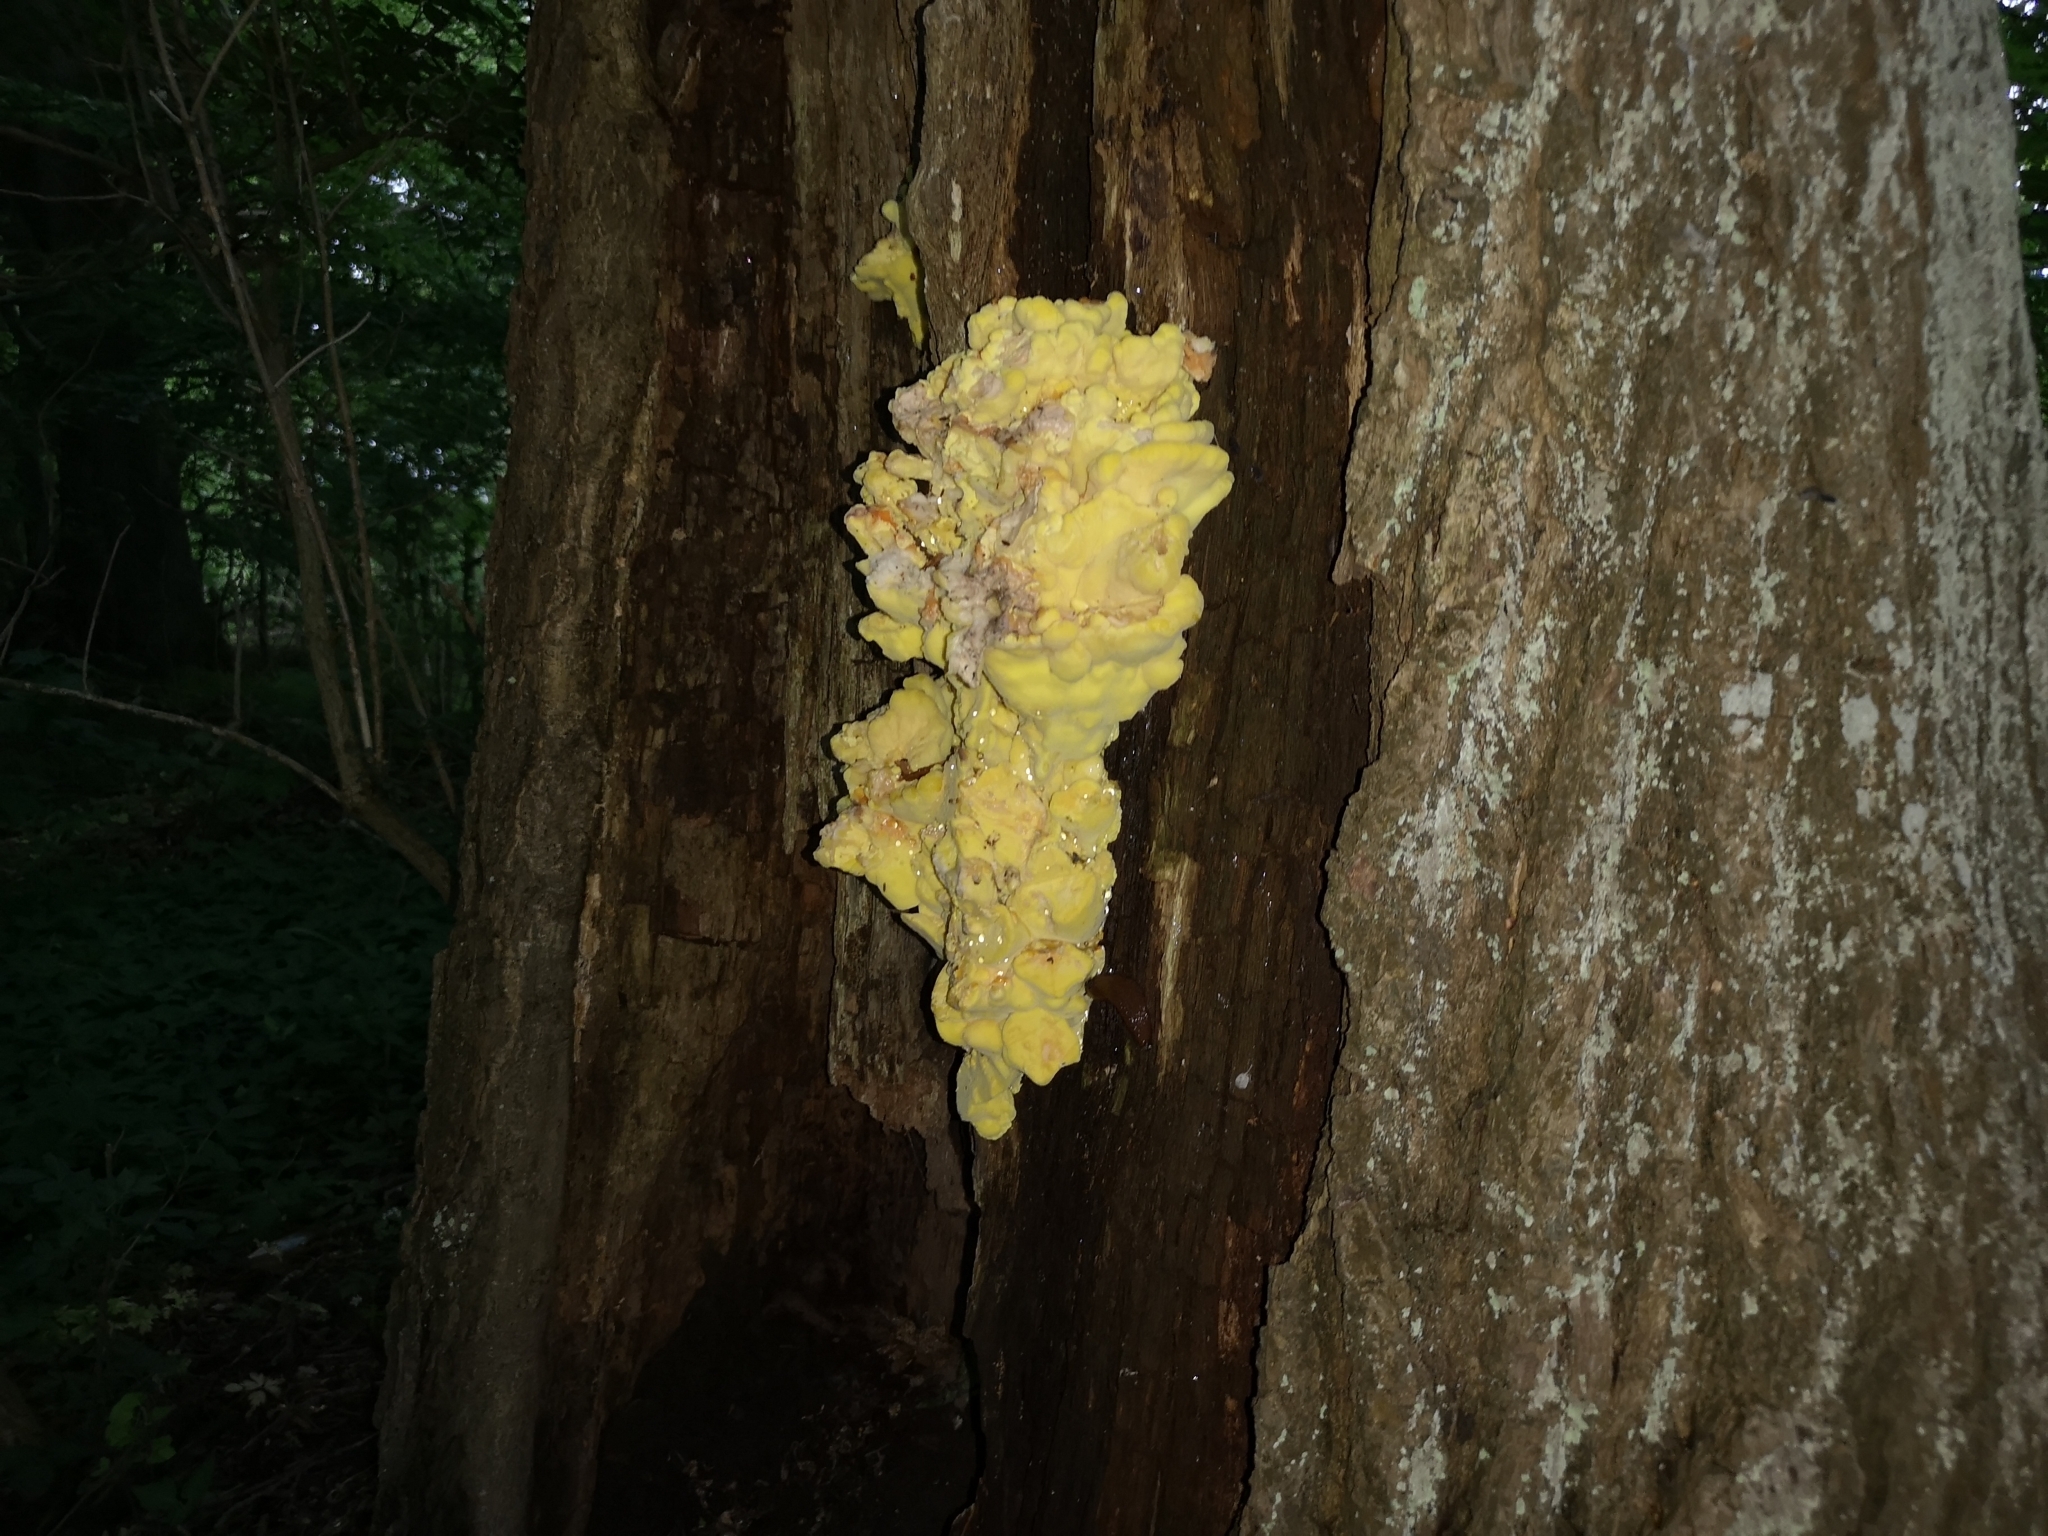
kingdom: Fungi
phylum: Basidiomycota
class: Agaricomycetes
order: Polyporales
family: Laetiporaceae
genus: Laetiporus
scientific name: Laetiporus sulphureus
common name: Chicken of the woods
